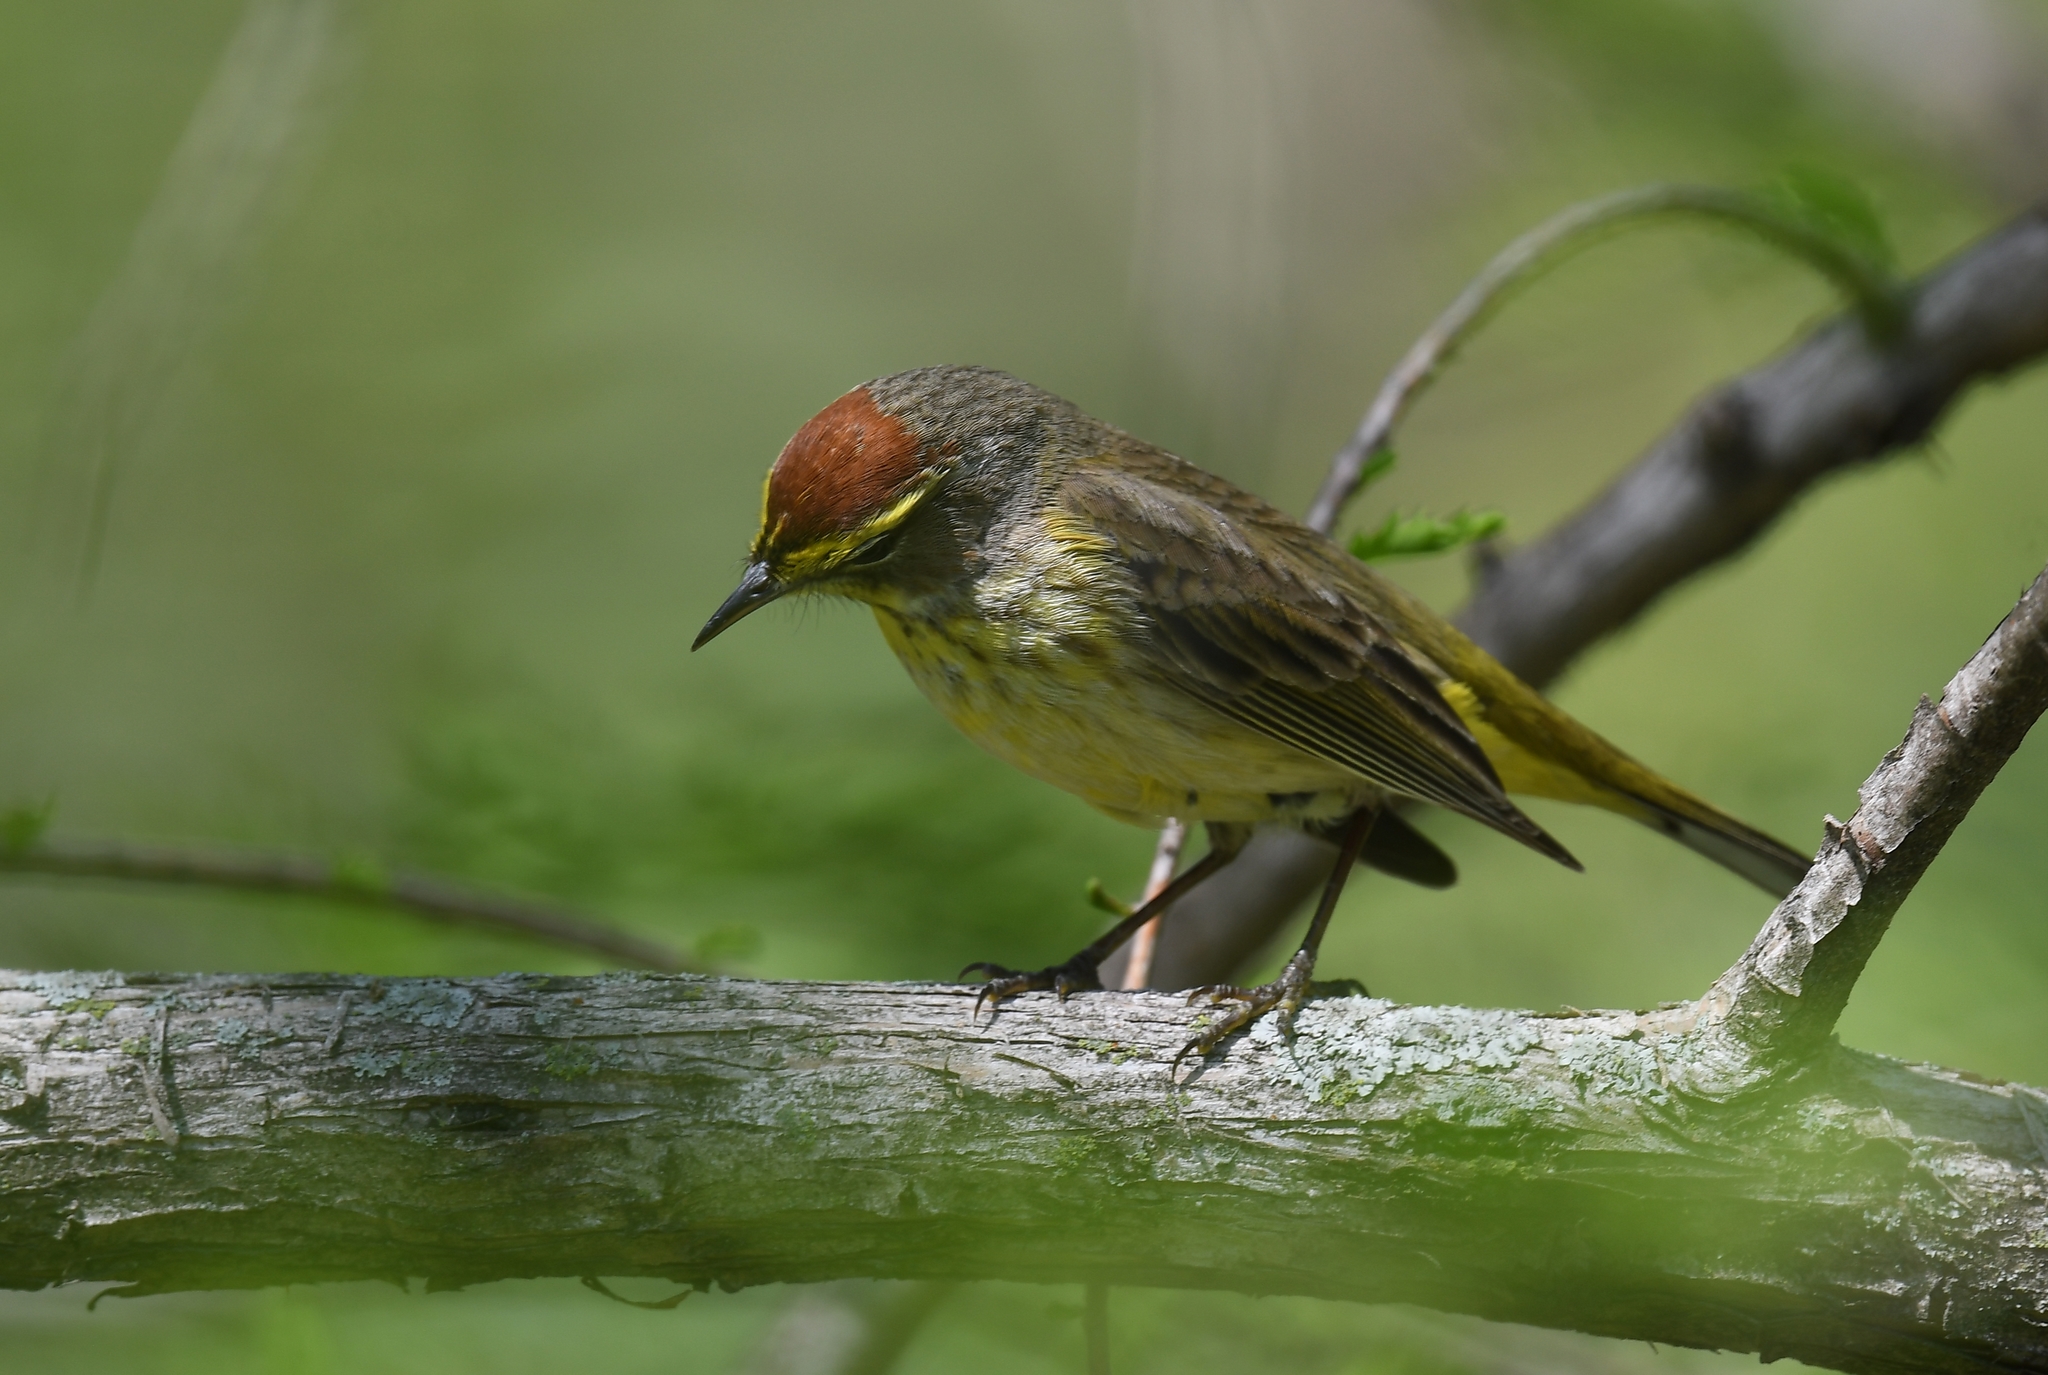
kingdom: Animalia
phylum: Chordata
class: Aves
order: Passeriformes
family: Parulidae
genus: Setophaga
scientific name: Setophaga palmarum
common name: Palm warbler
